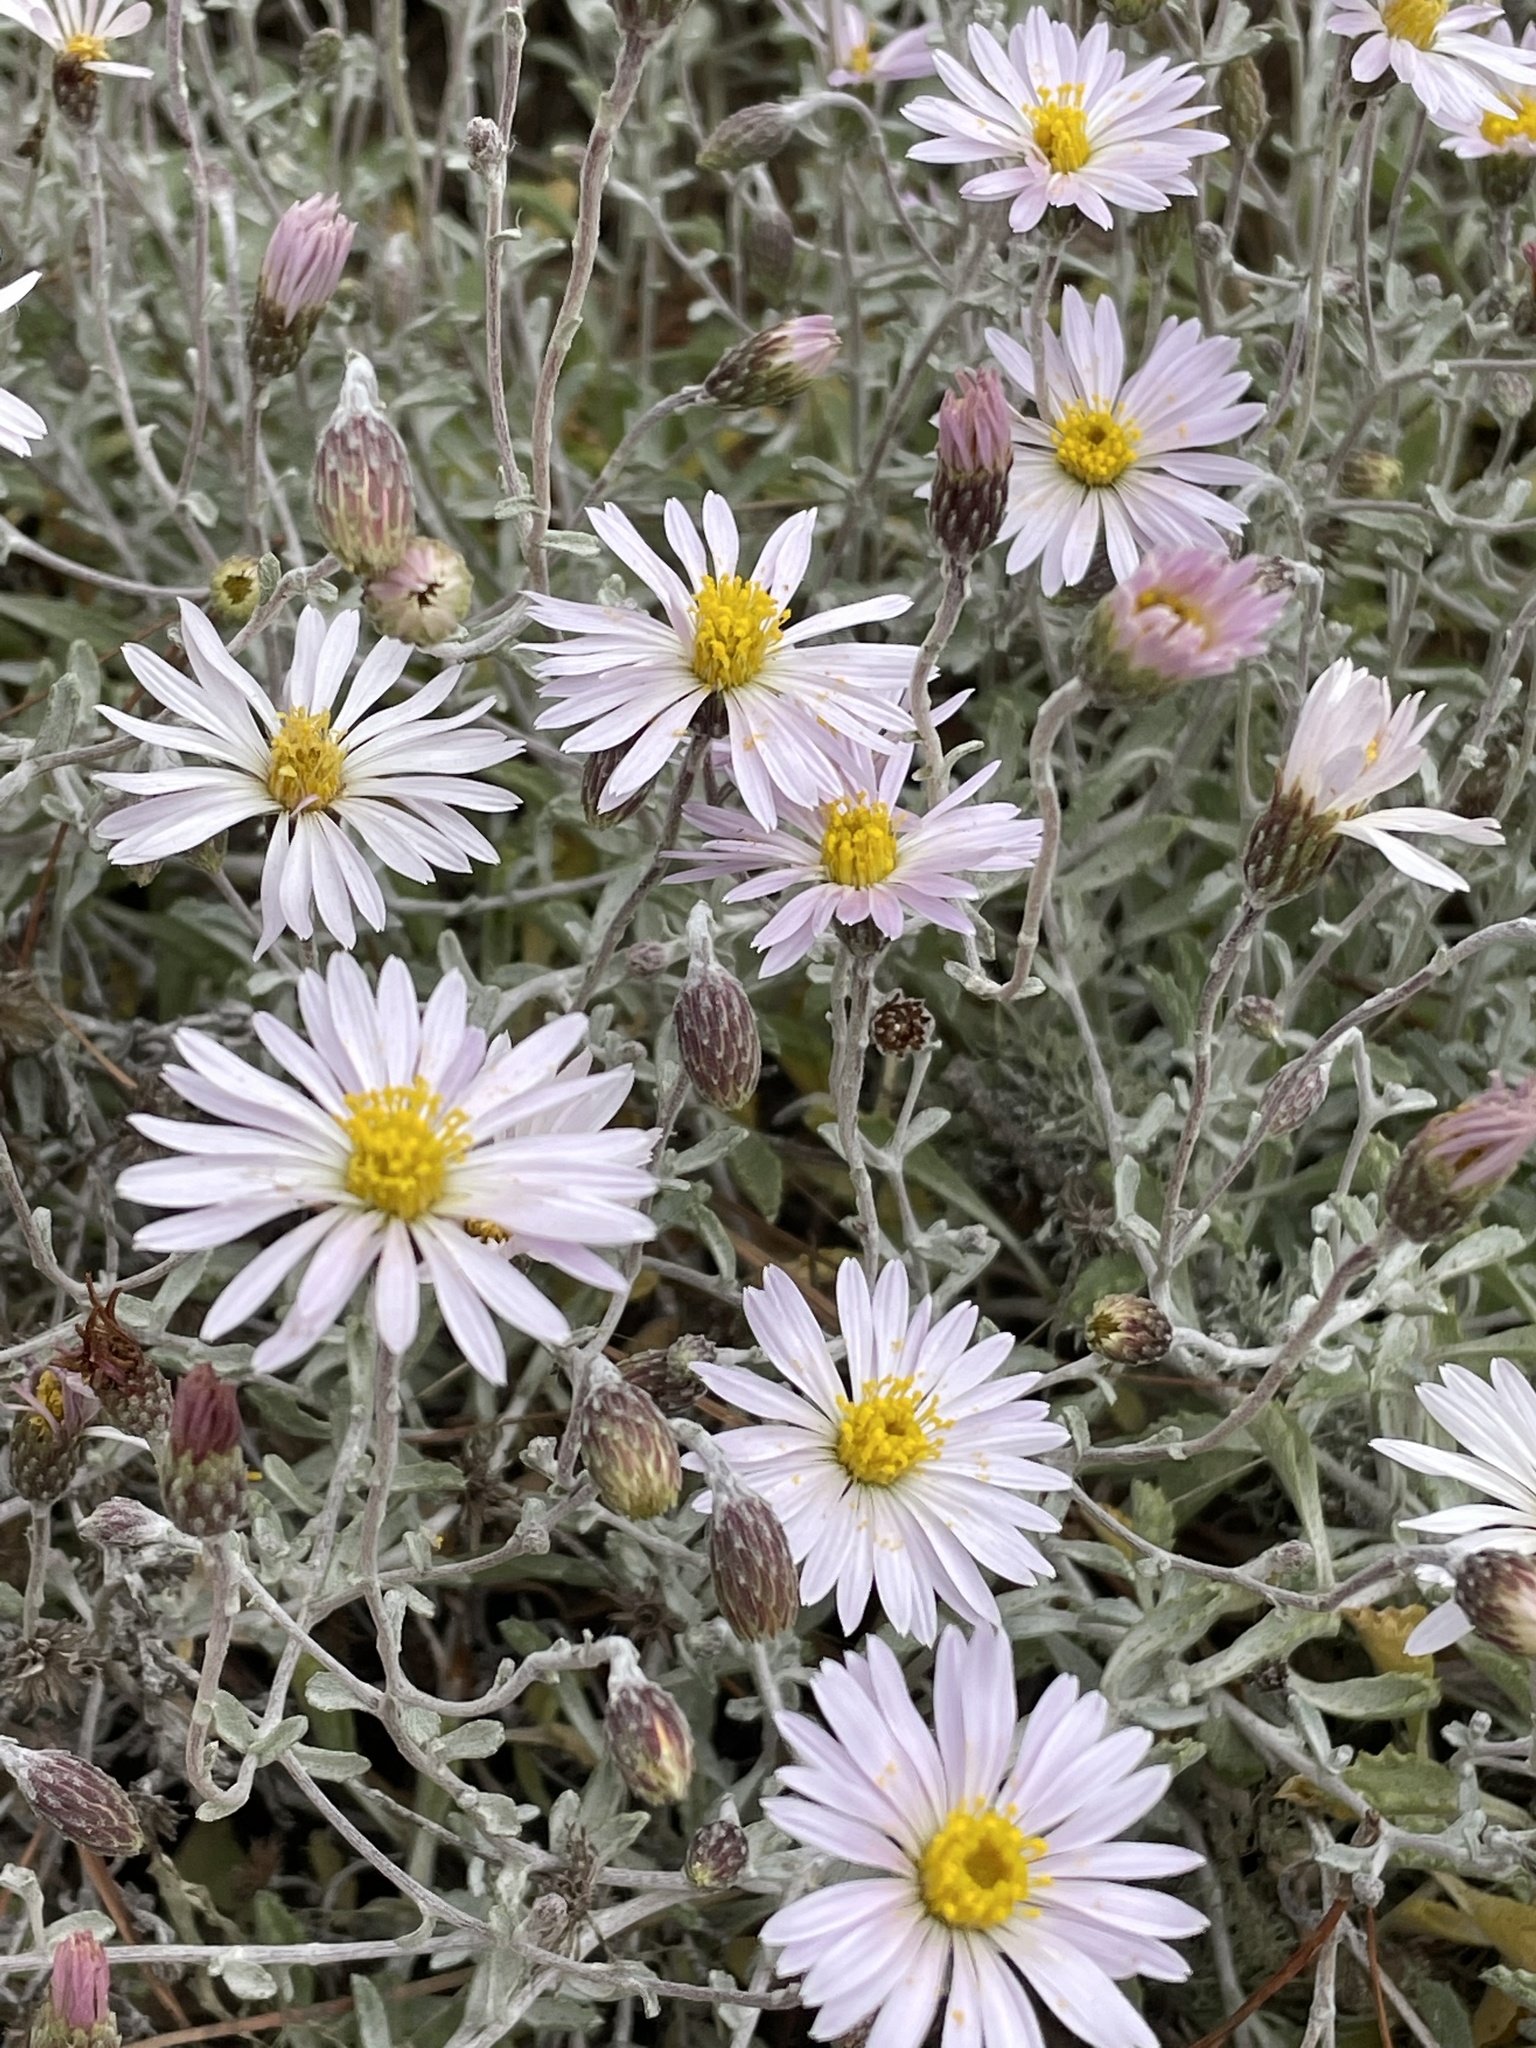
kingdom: Plantae
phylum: Tracheophyta
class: Magnoliopsida
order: Asterales
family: Asteraceae
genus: Corethrogyne
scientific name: Corethrogyne filaginifolia
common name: Sand-aster
